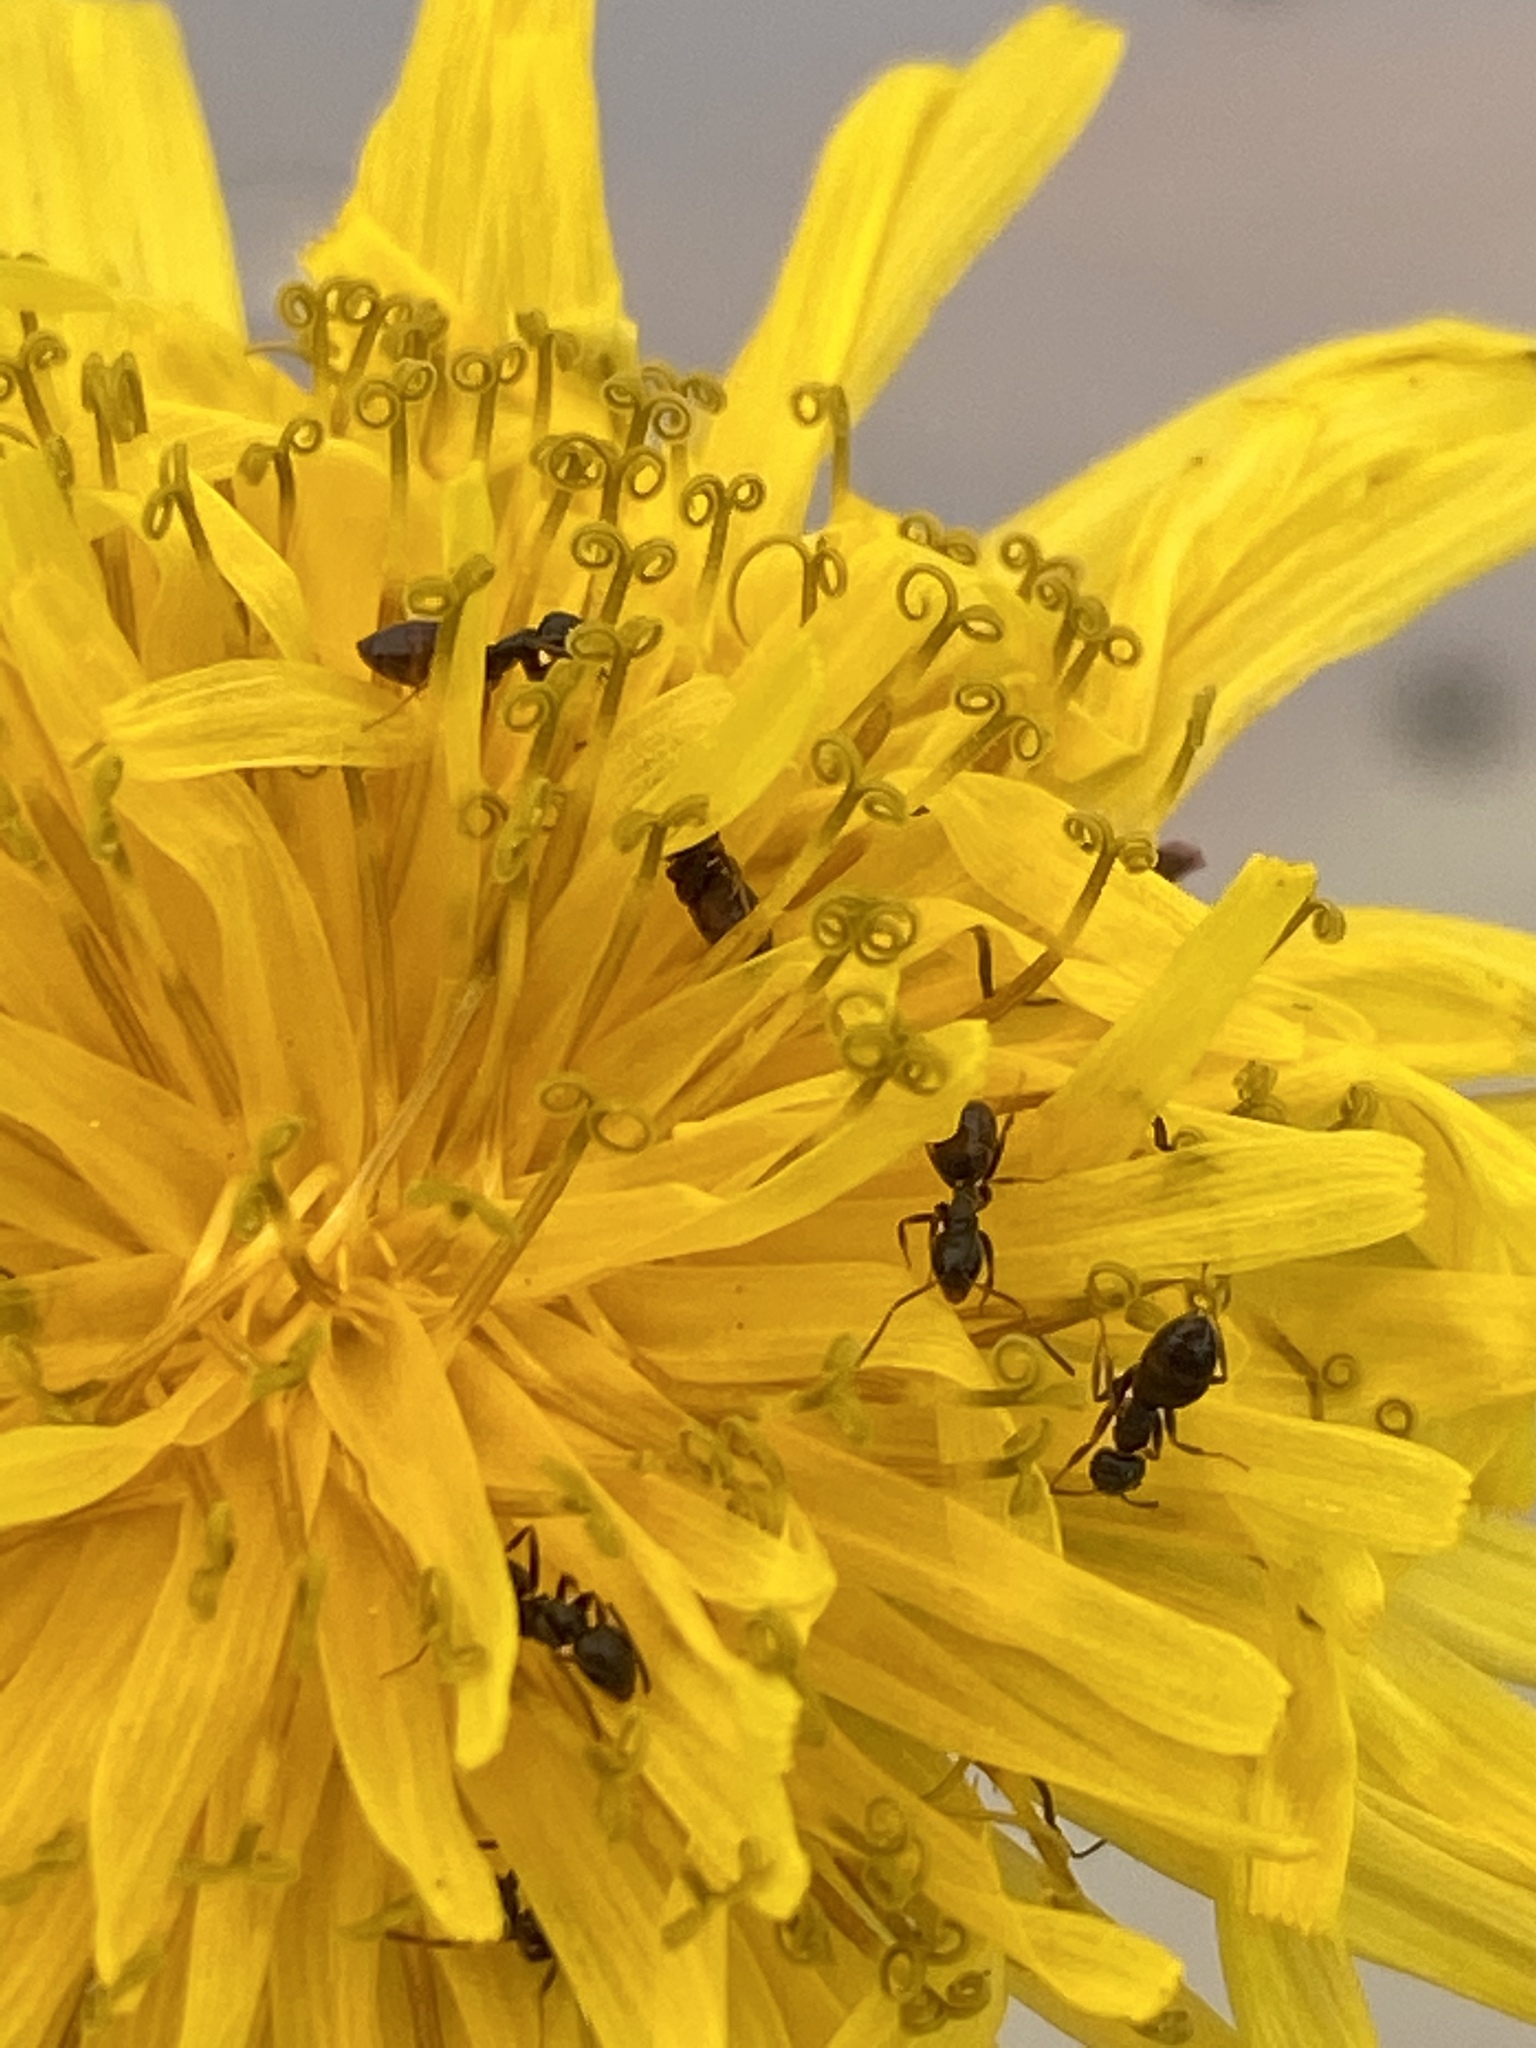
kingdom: Animalia
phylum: Arthropoda
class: Insecta
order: Hymenoptera
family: Formicidae
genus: Tapinoma
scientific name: Tapinoma sessile
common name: Odorous house ant
